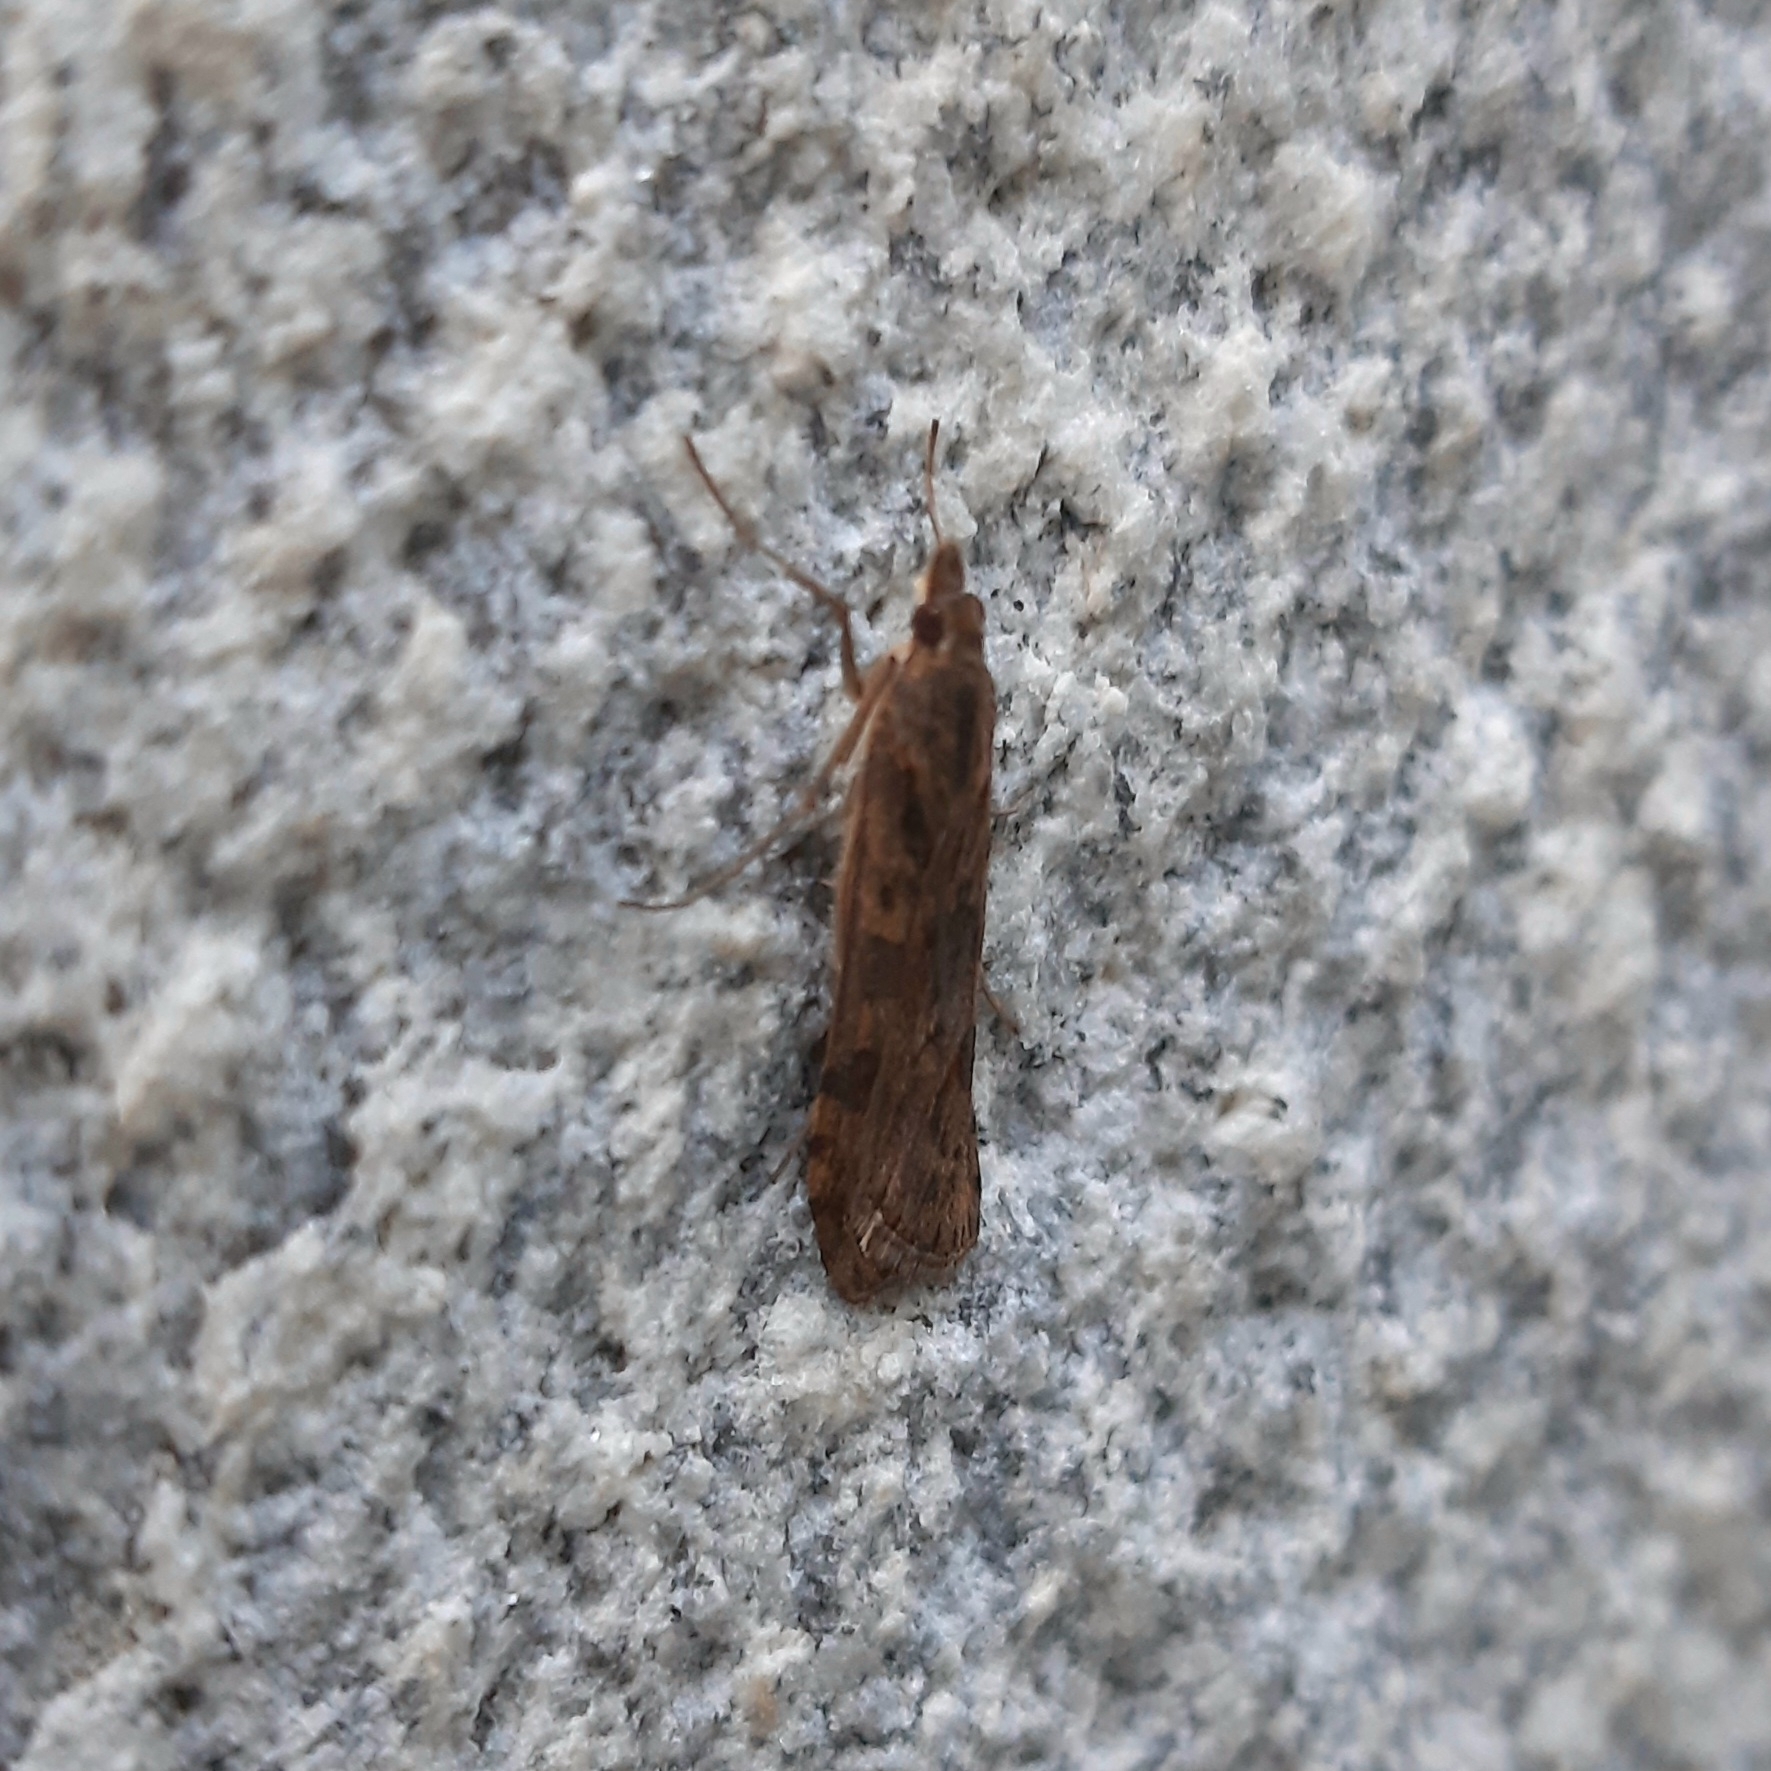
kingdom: Animalia
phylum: Arthropoda
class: Insecta
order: Lepidoptera
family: Crambidae
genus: Nomophila
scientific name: Nomophila noctuella
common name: Rush veneer
